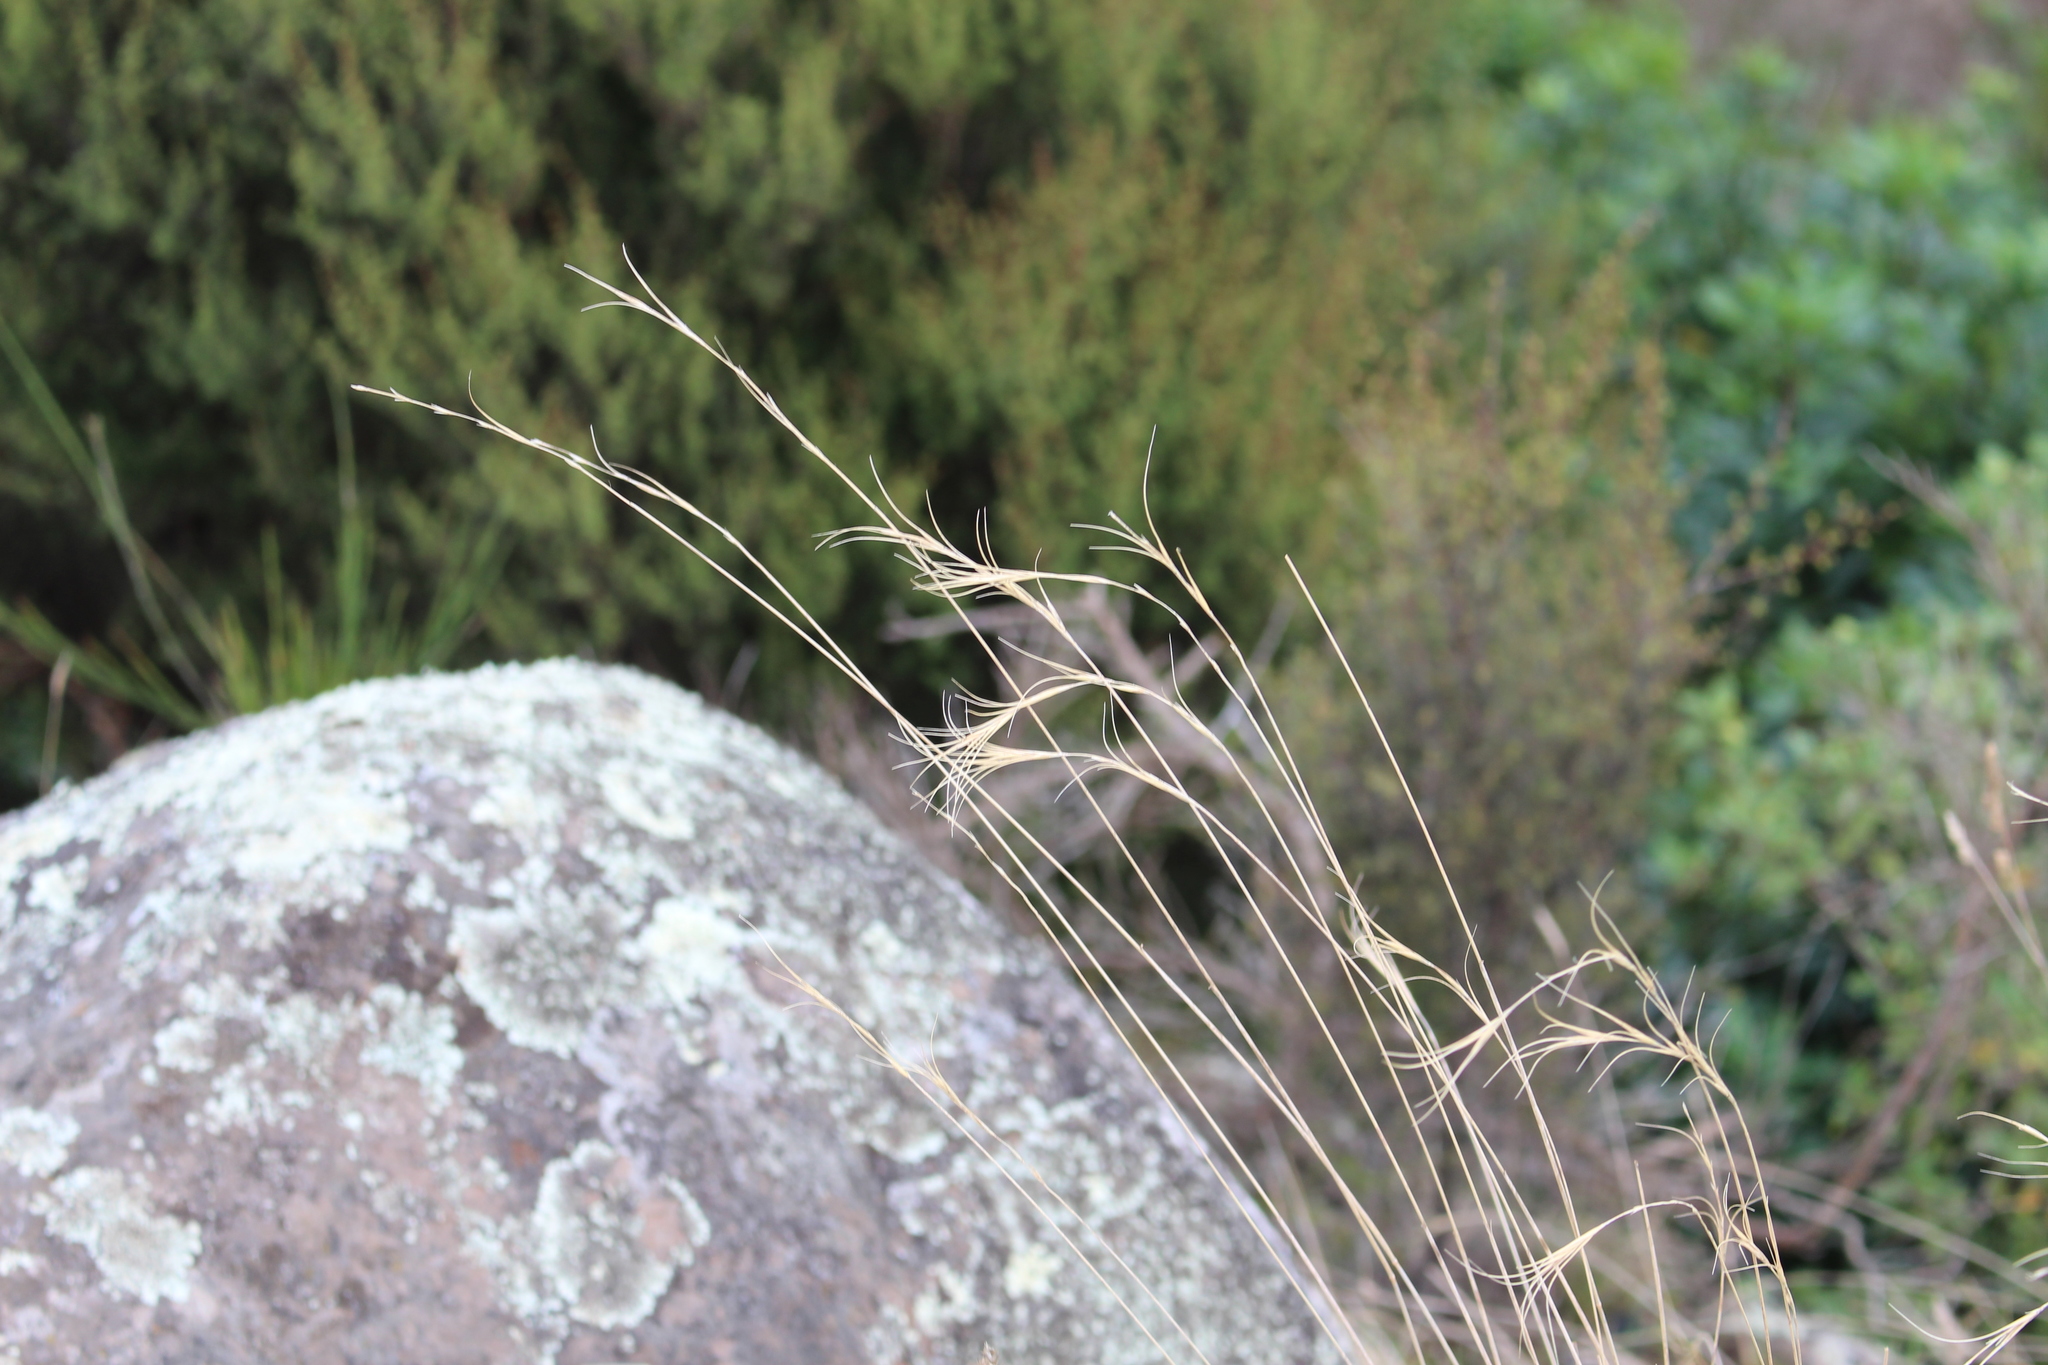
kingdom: Plantae
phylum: Tracheophyta
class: Liliopsida
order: Poales
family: Poaceae
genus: Anthosachne
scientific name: Anthosachne solandri
